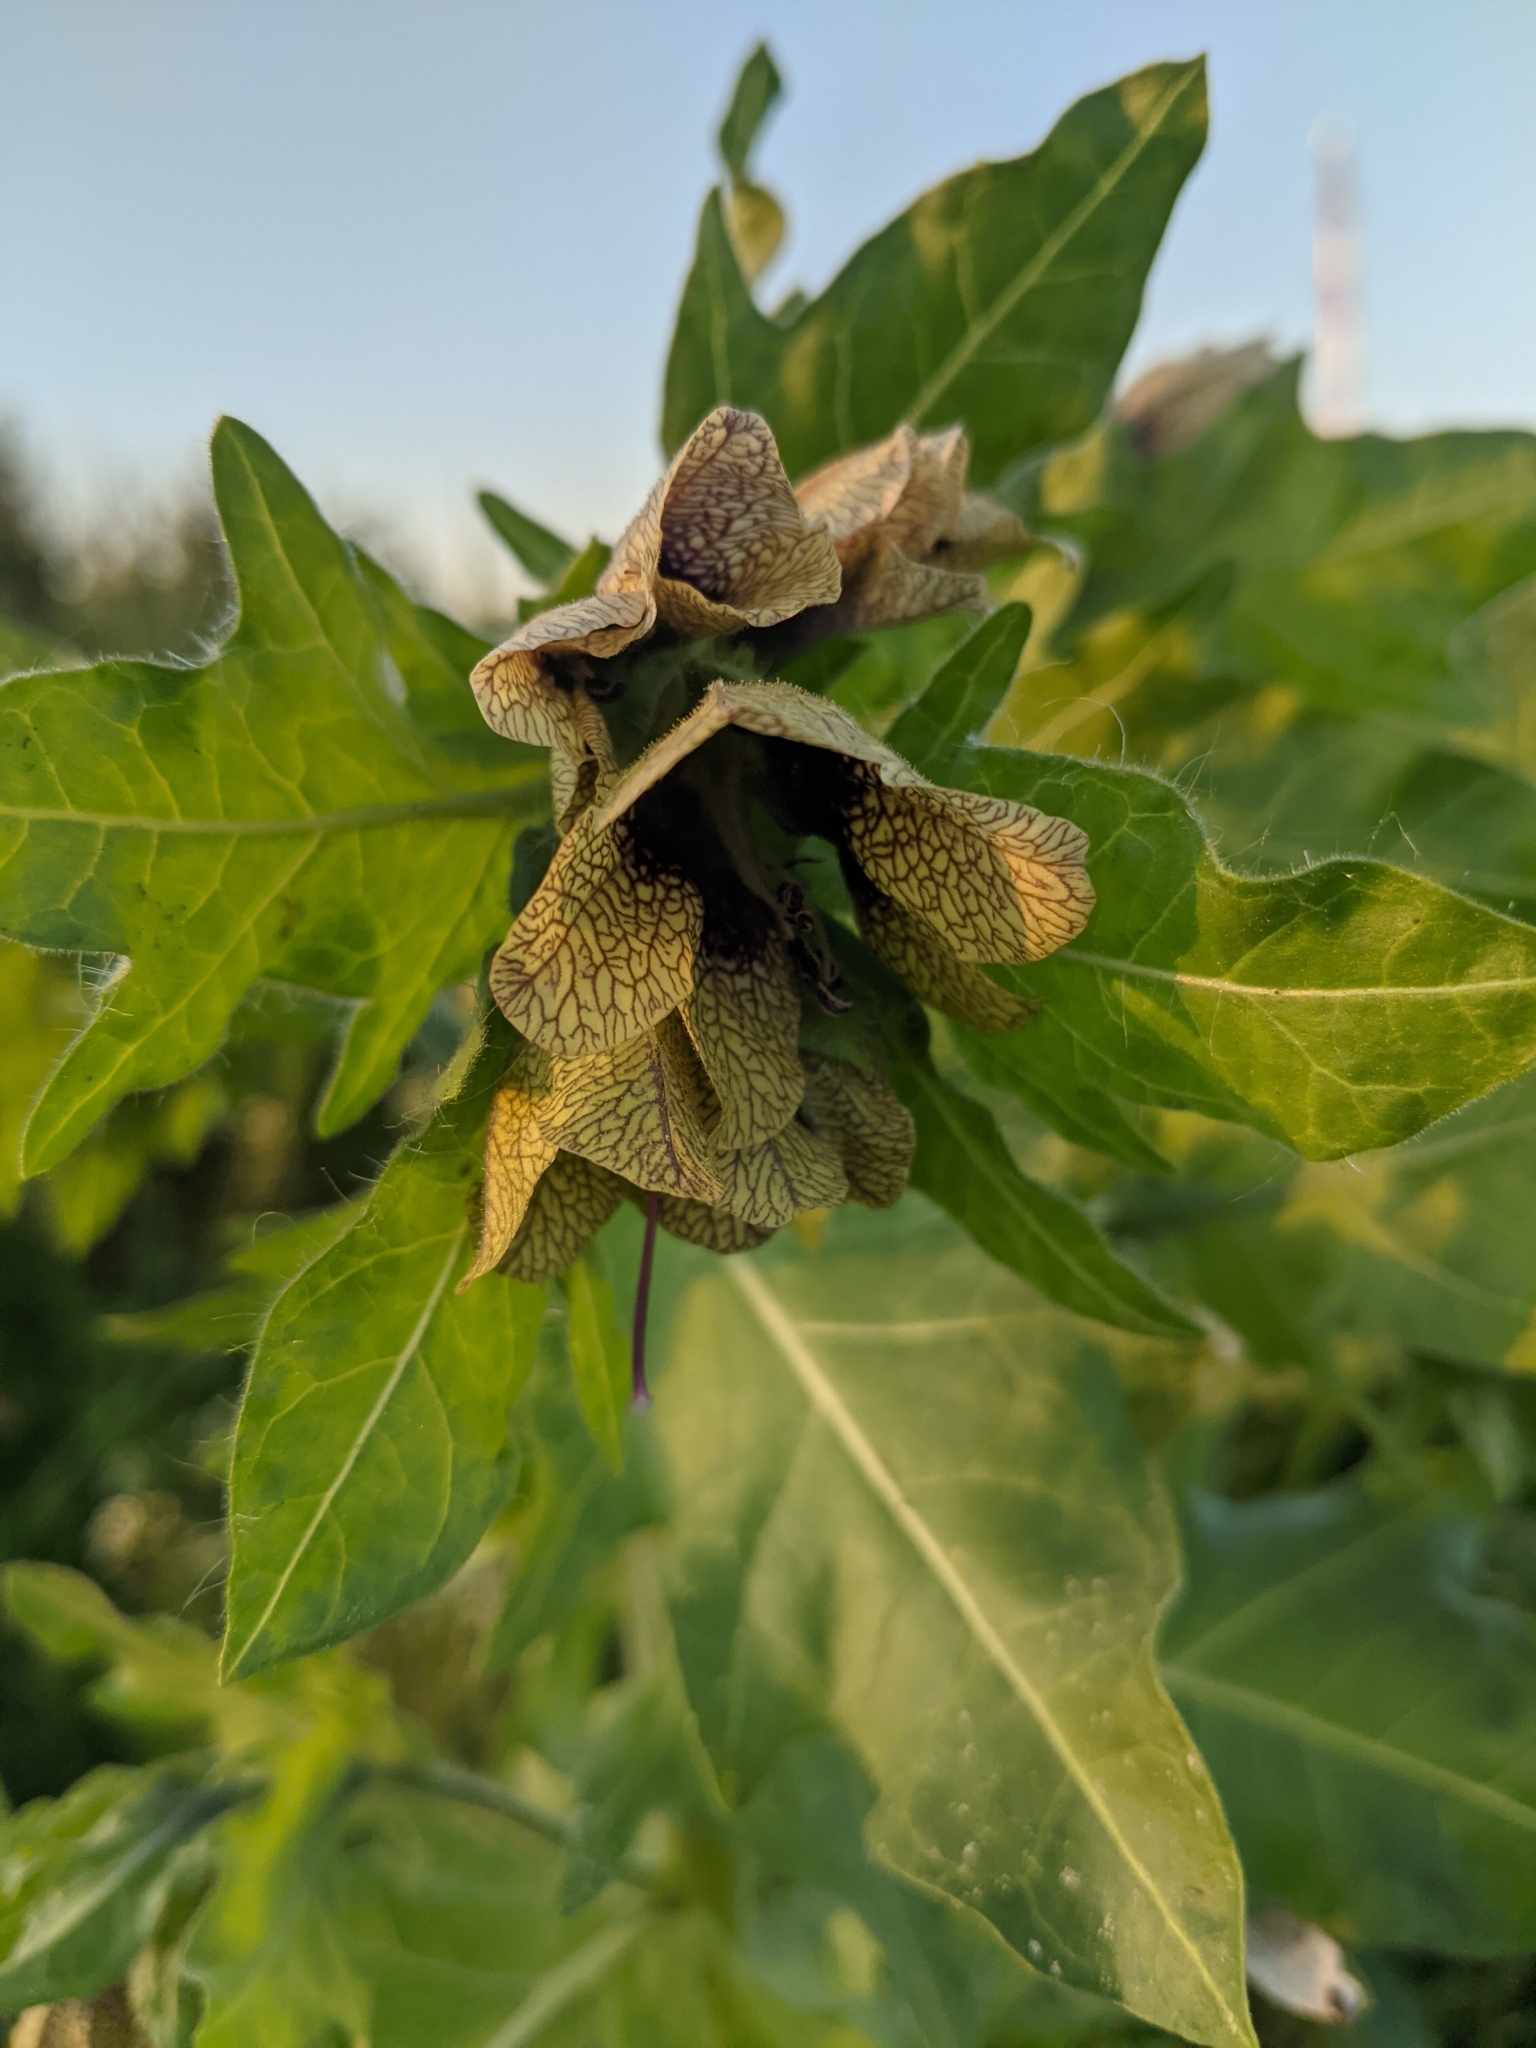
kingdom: Plantae
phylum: Tracheophyta
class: Magnoliopsida
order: Solanales
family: Solanaceae
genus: Hyoscyamus
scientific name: Hyoscyamus niger
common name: Henbane
